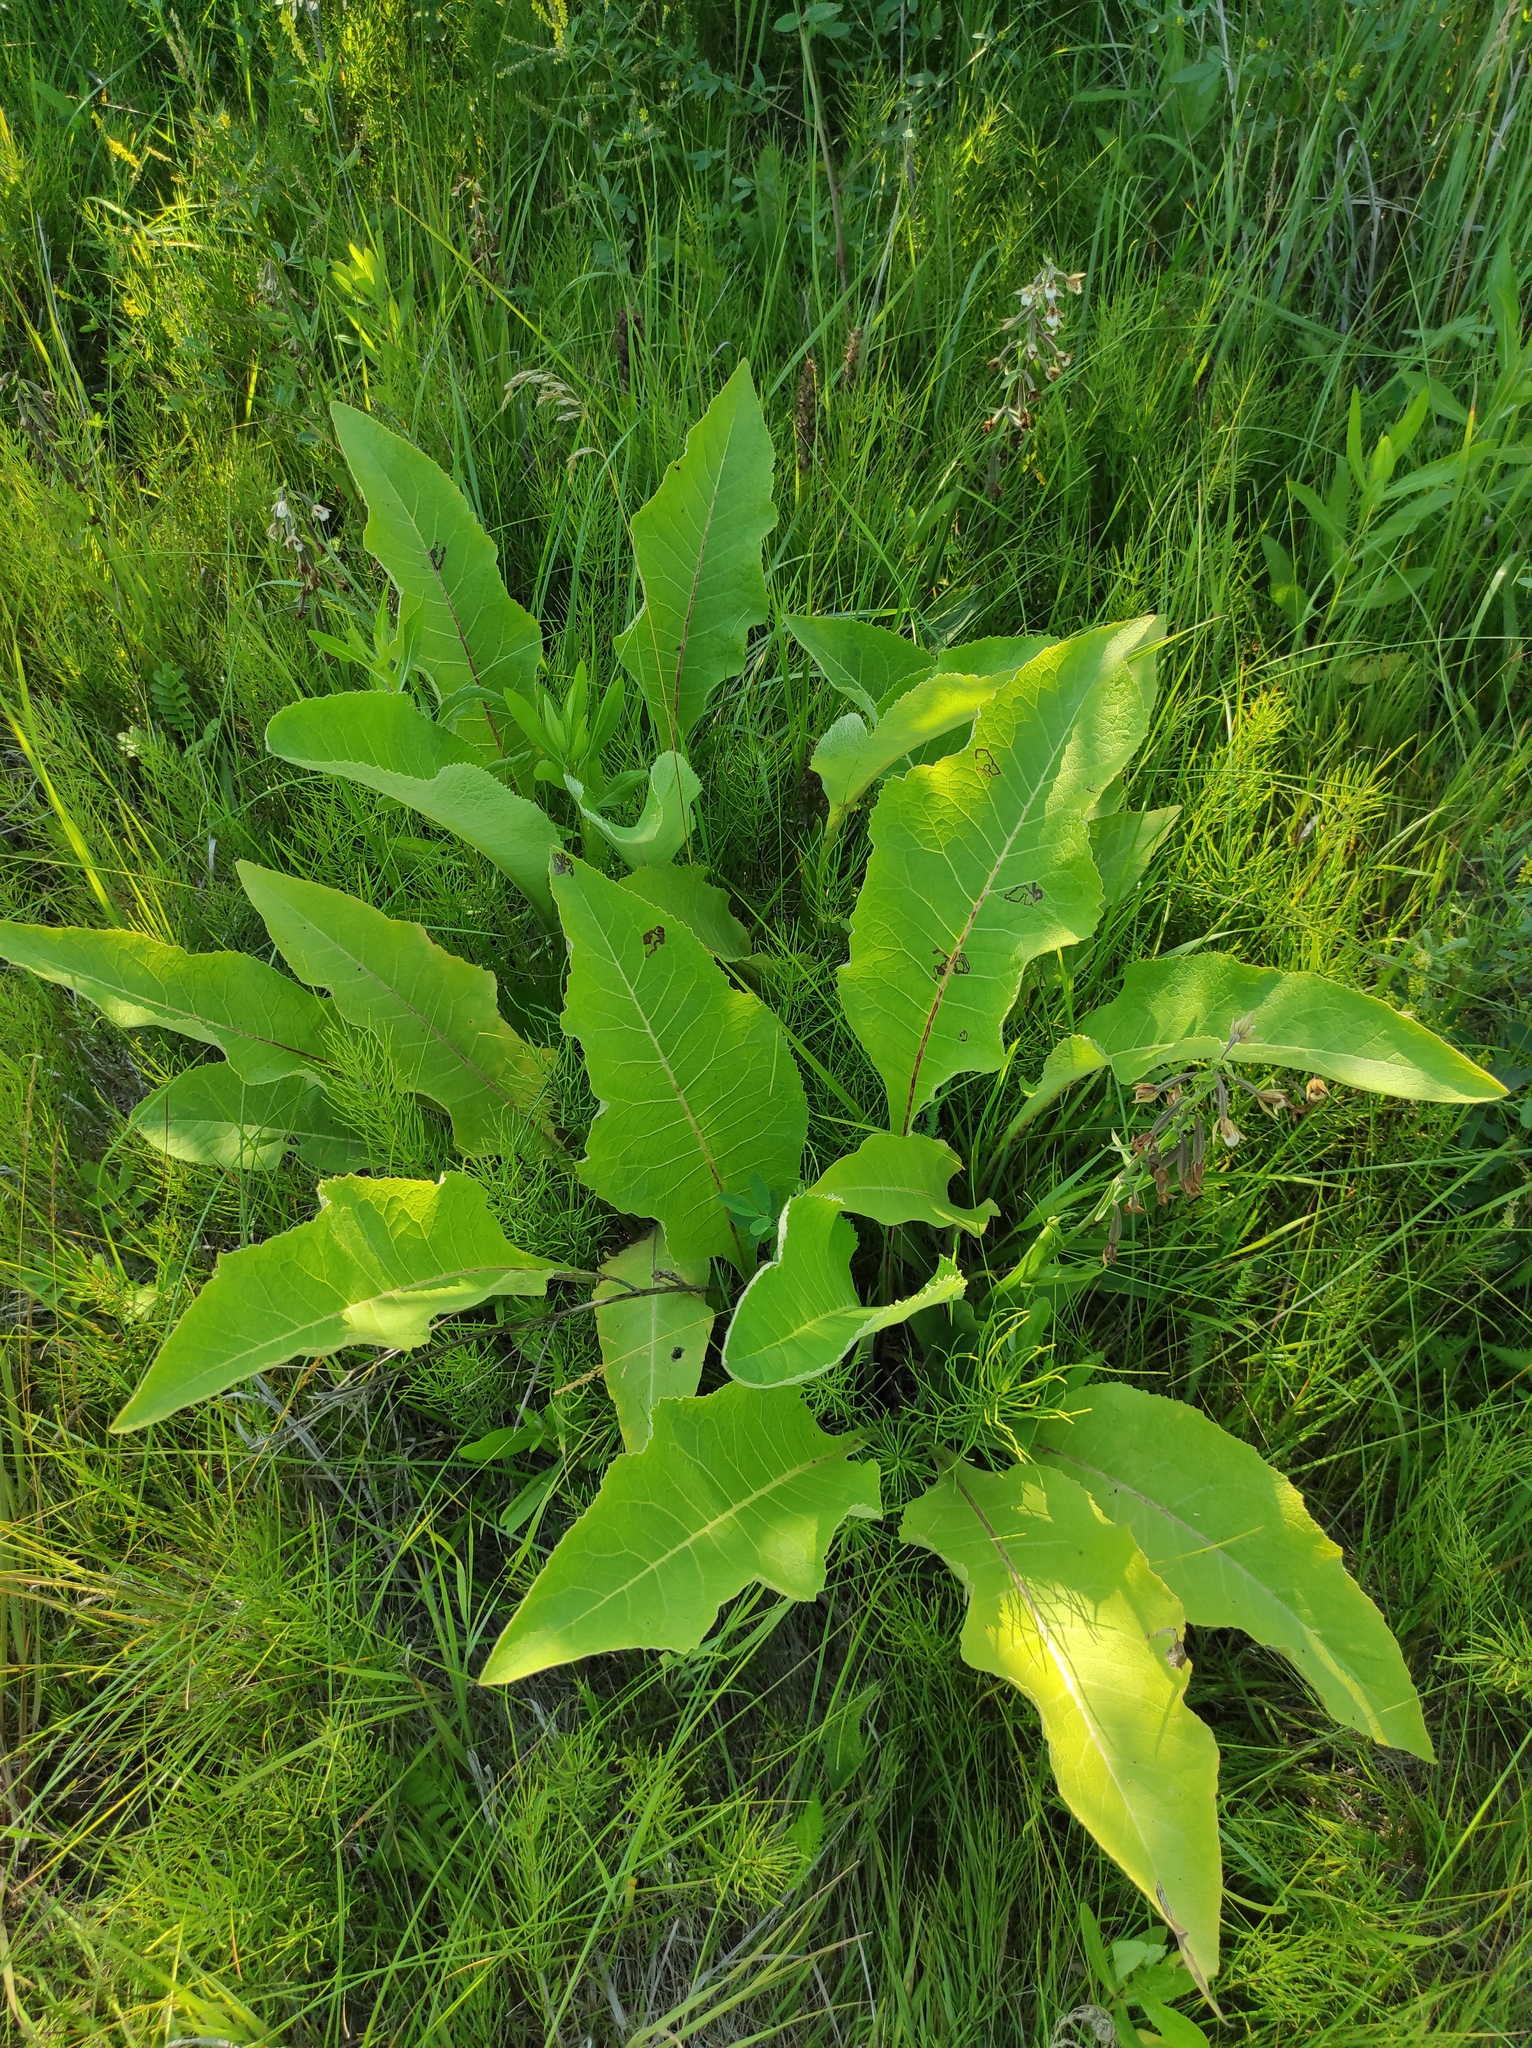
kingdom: Plantae
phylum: Tracheophyta
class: Magnoliopsida
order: Asterales
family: Asteraceae
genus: Inula
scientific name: Inula helenium
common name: Elecampane
